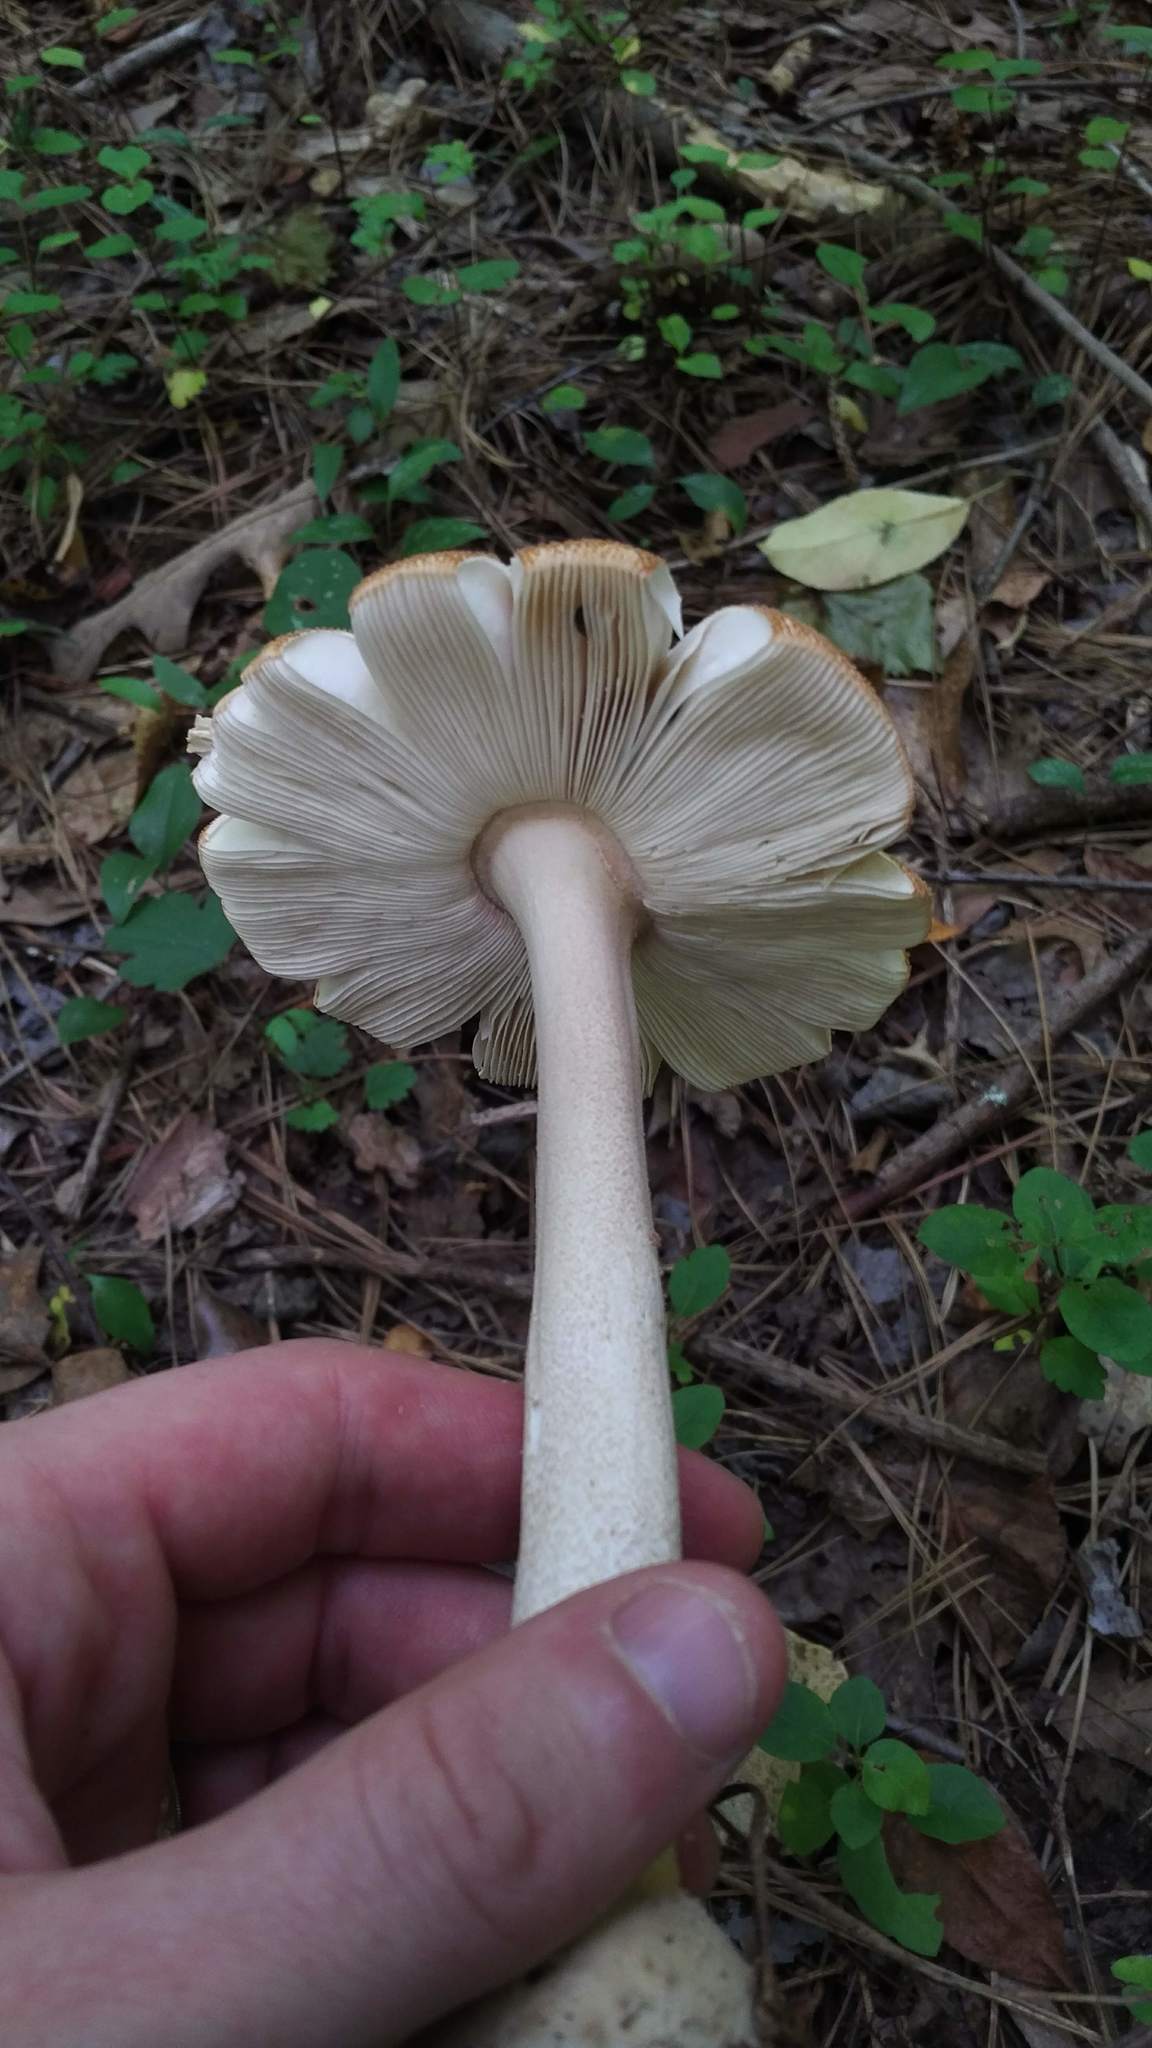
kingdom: Fungi
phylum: Basidiomycota
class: Agaricomycetes
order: Agaricales
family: Amanitaceae
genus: Amanita
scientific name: Amanita roseotincta
